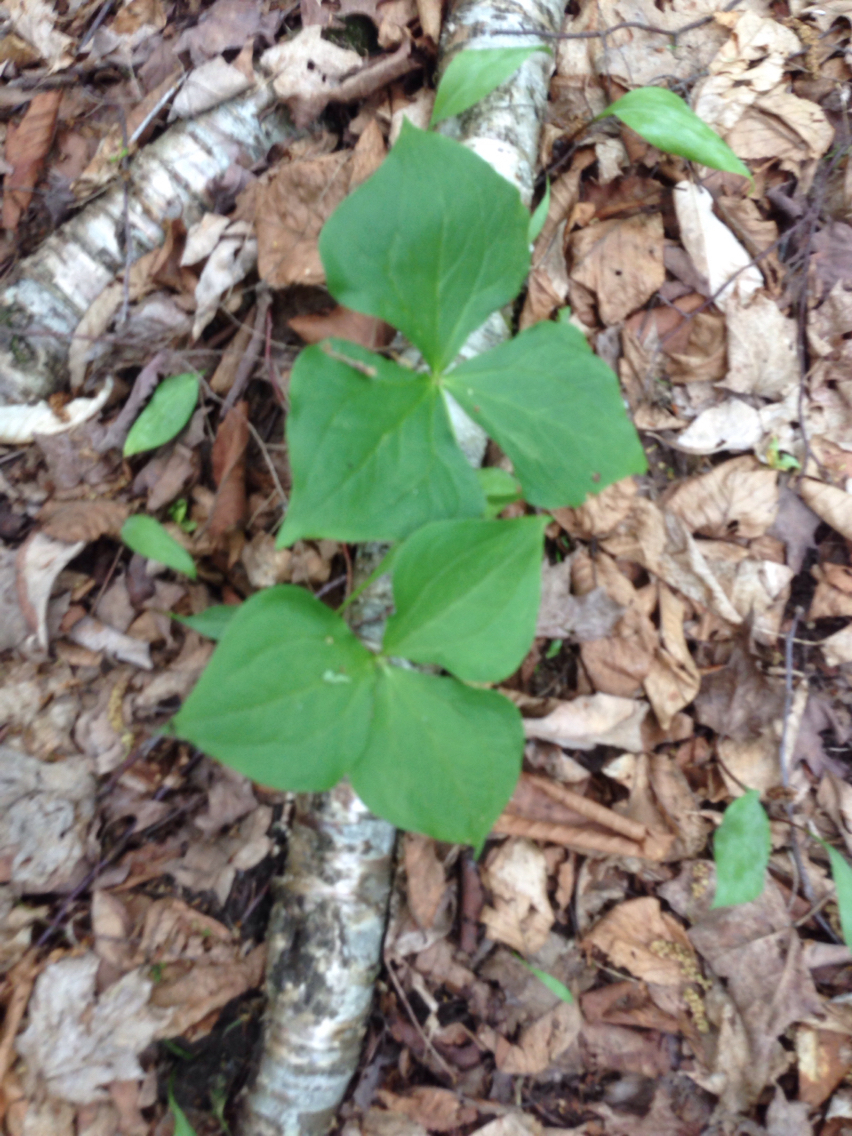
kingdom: Plantae
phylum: Tracheophyta
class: Liliopsida
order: Liliales
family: Melanthiaceae
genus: Trillium
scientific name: Trillium erectum
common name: Purple trillium
